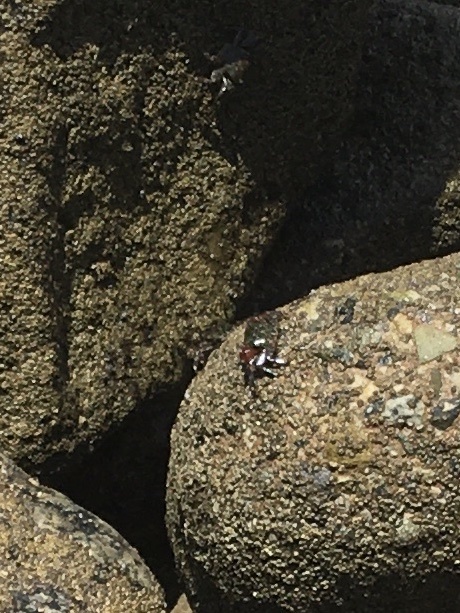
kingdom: Animalia
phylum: Arthropoda
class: Malacostraca
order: Decapoda
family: Grapsidae
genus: Pachygrapsus
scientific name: Pachygrapsus crassipes
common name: Striped shore crab
